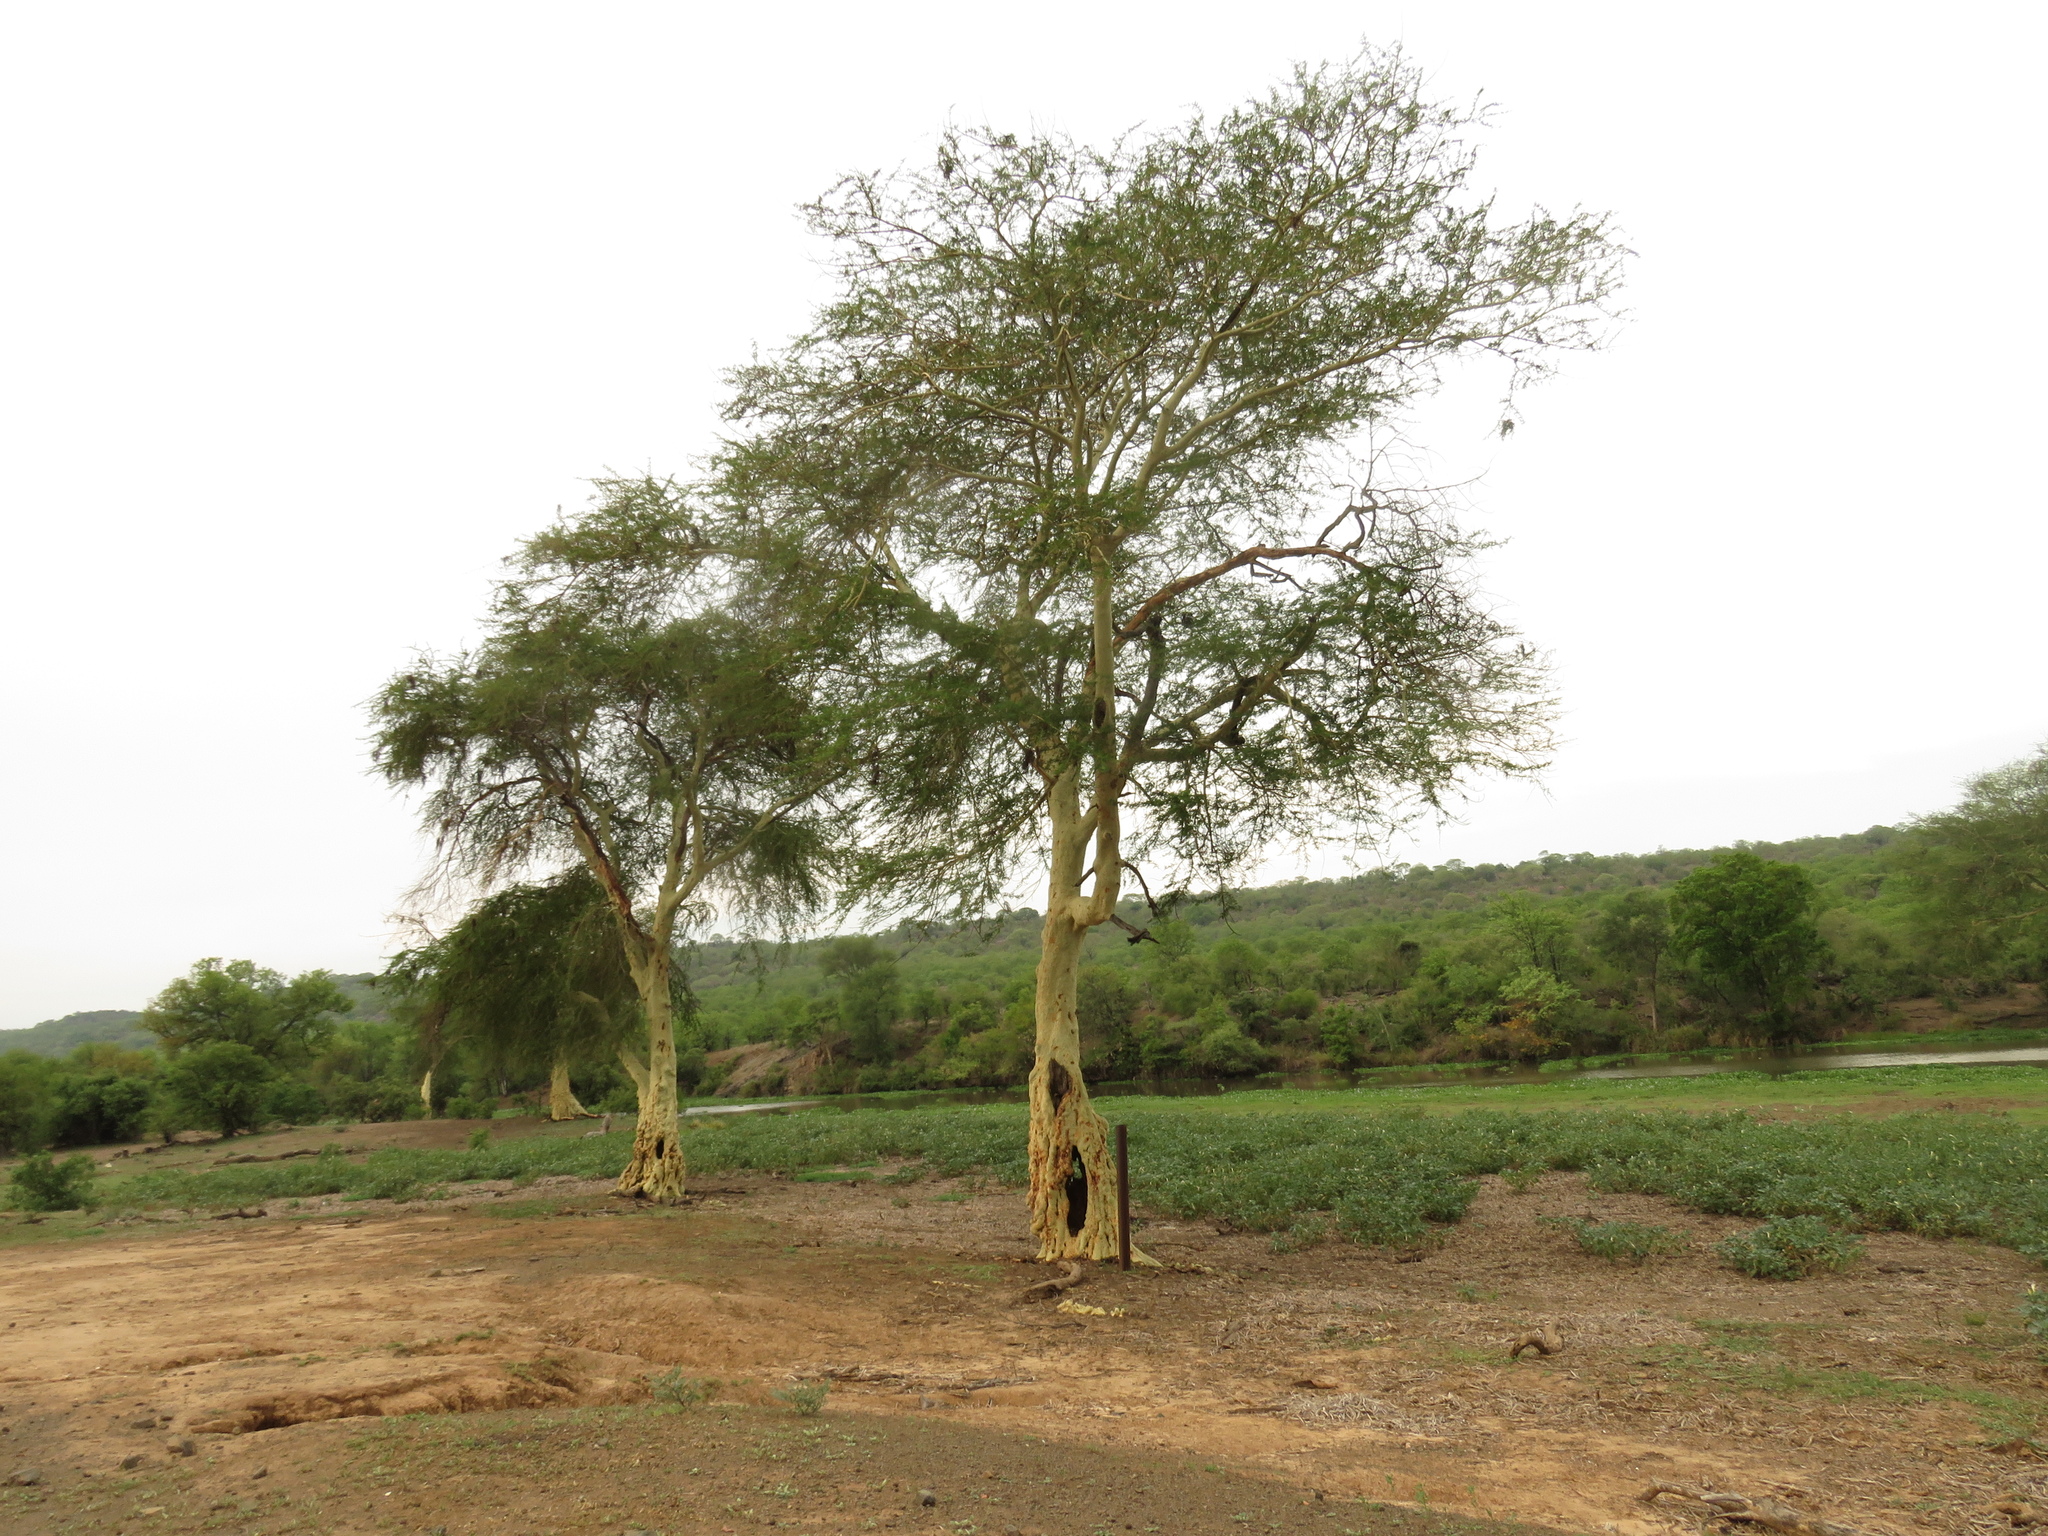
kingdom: Plantae
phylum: Tracheophyta
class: Magnoliopsida
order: Fabales
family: Fabaceae
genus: Vachellia
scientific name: Vachellia xanthophloea
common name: Fever tree
